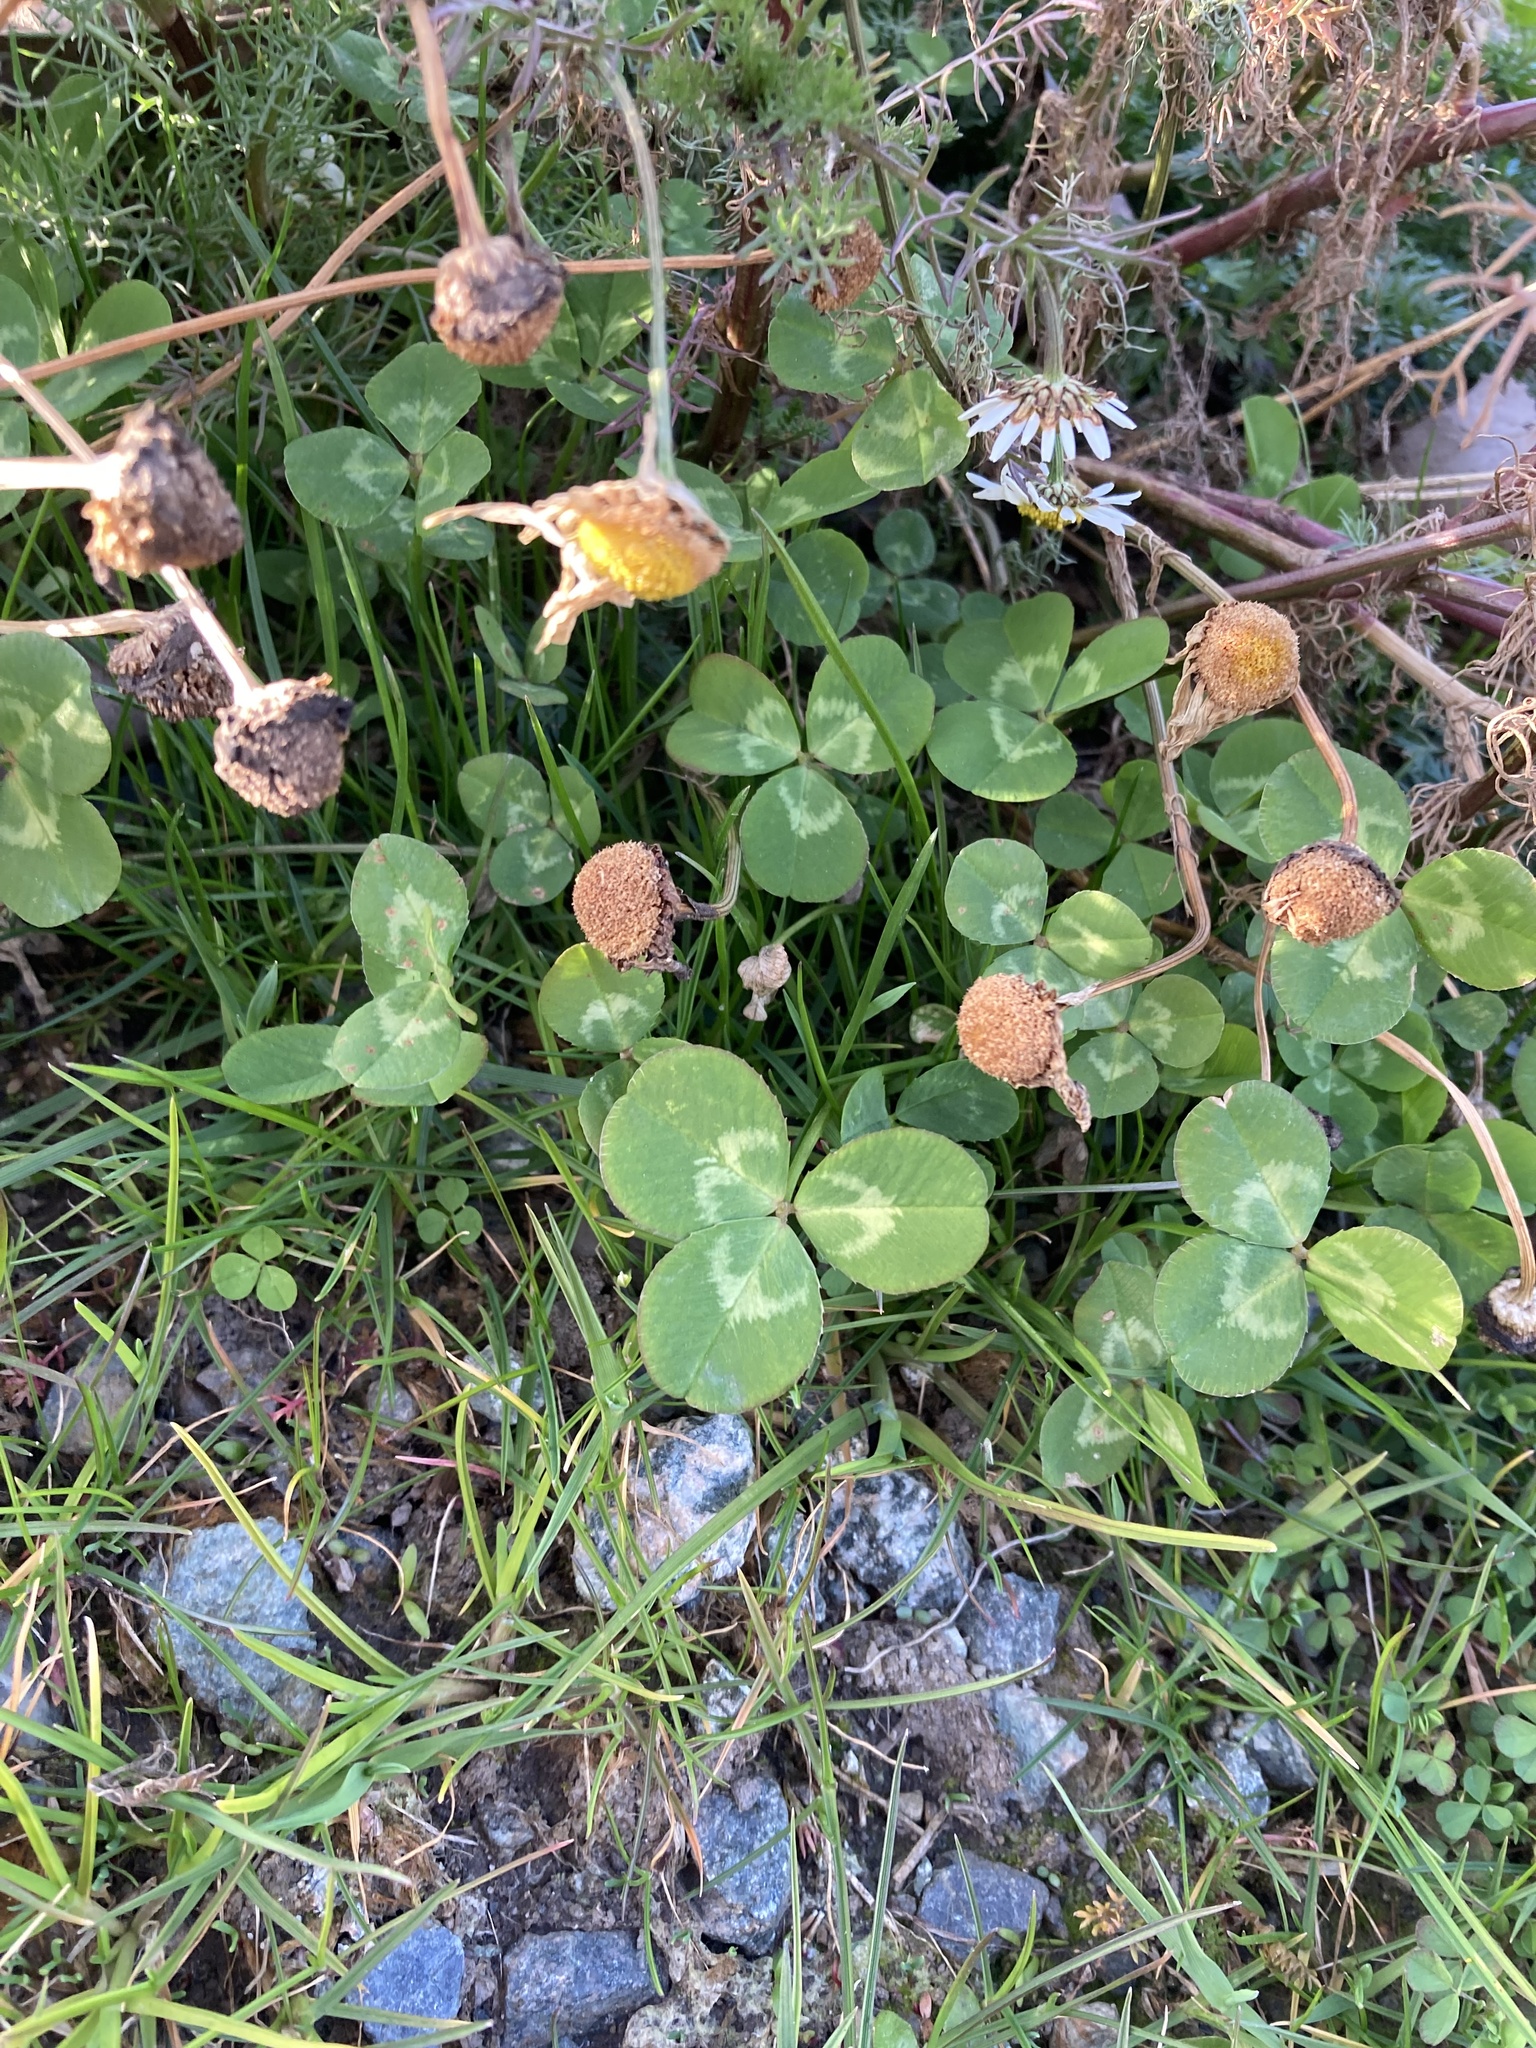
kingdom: Plantae
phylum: Tracheophyta
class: Magnoliopsida
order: Fabales
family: Fabaceae
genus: Trifolium
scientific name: Trifolium repens
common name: White clover
